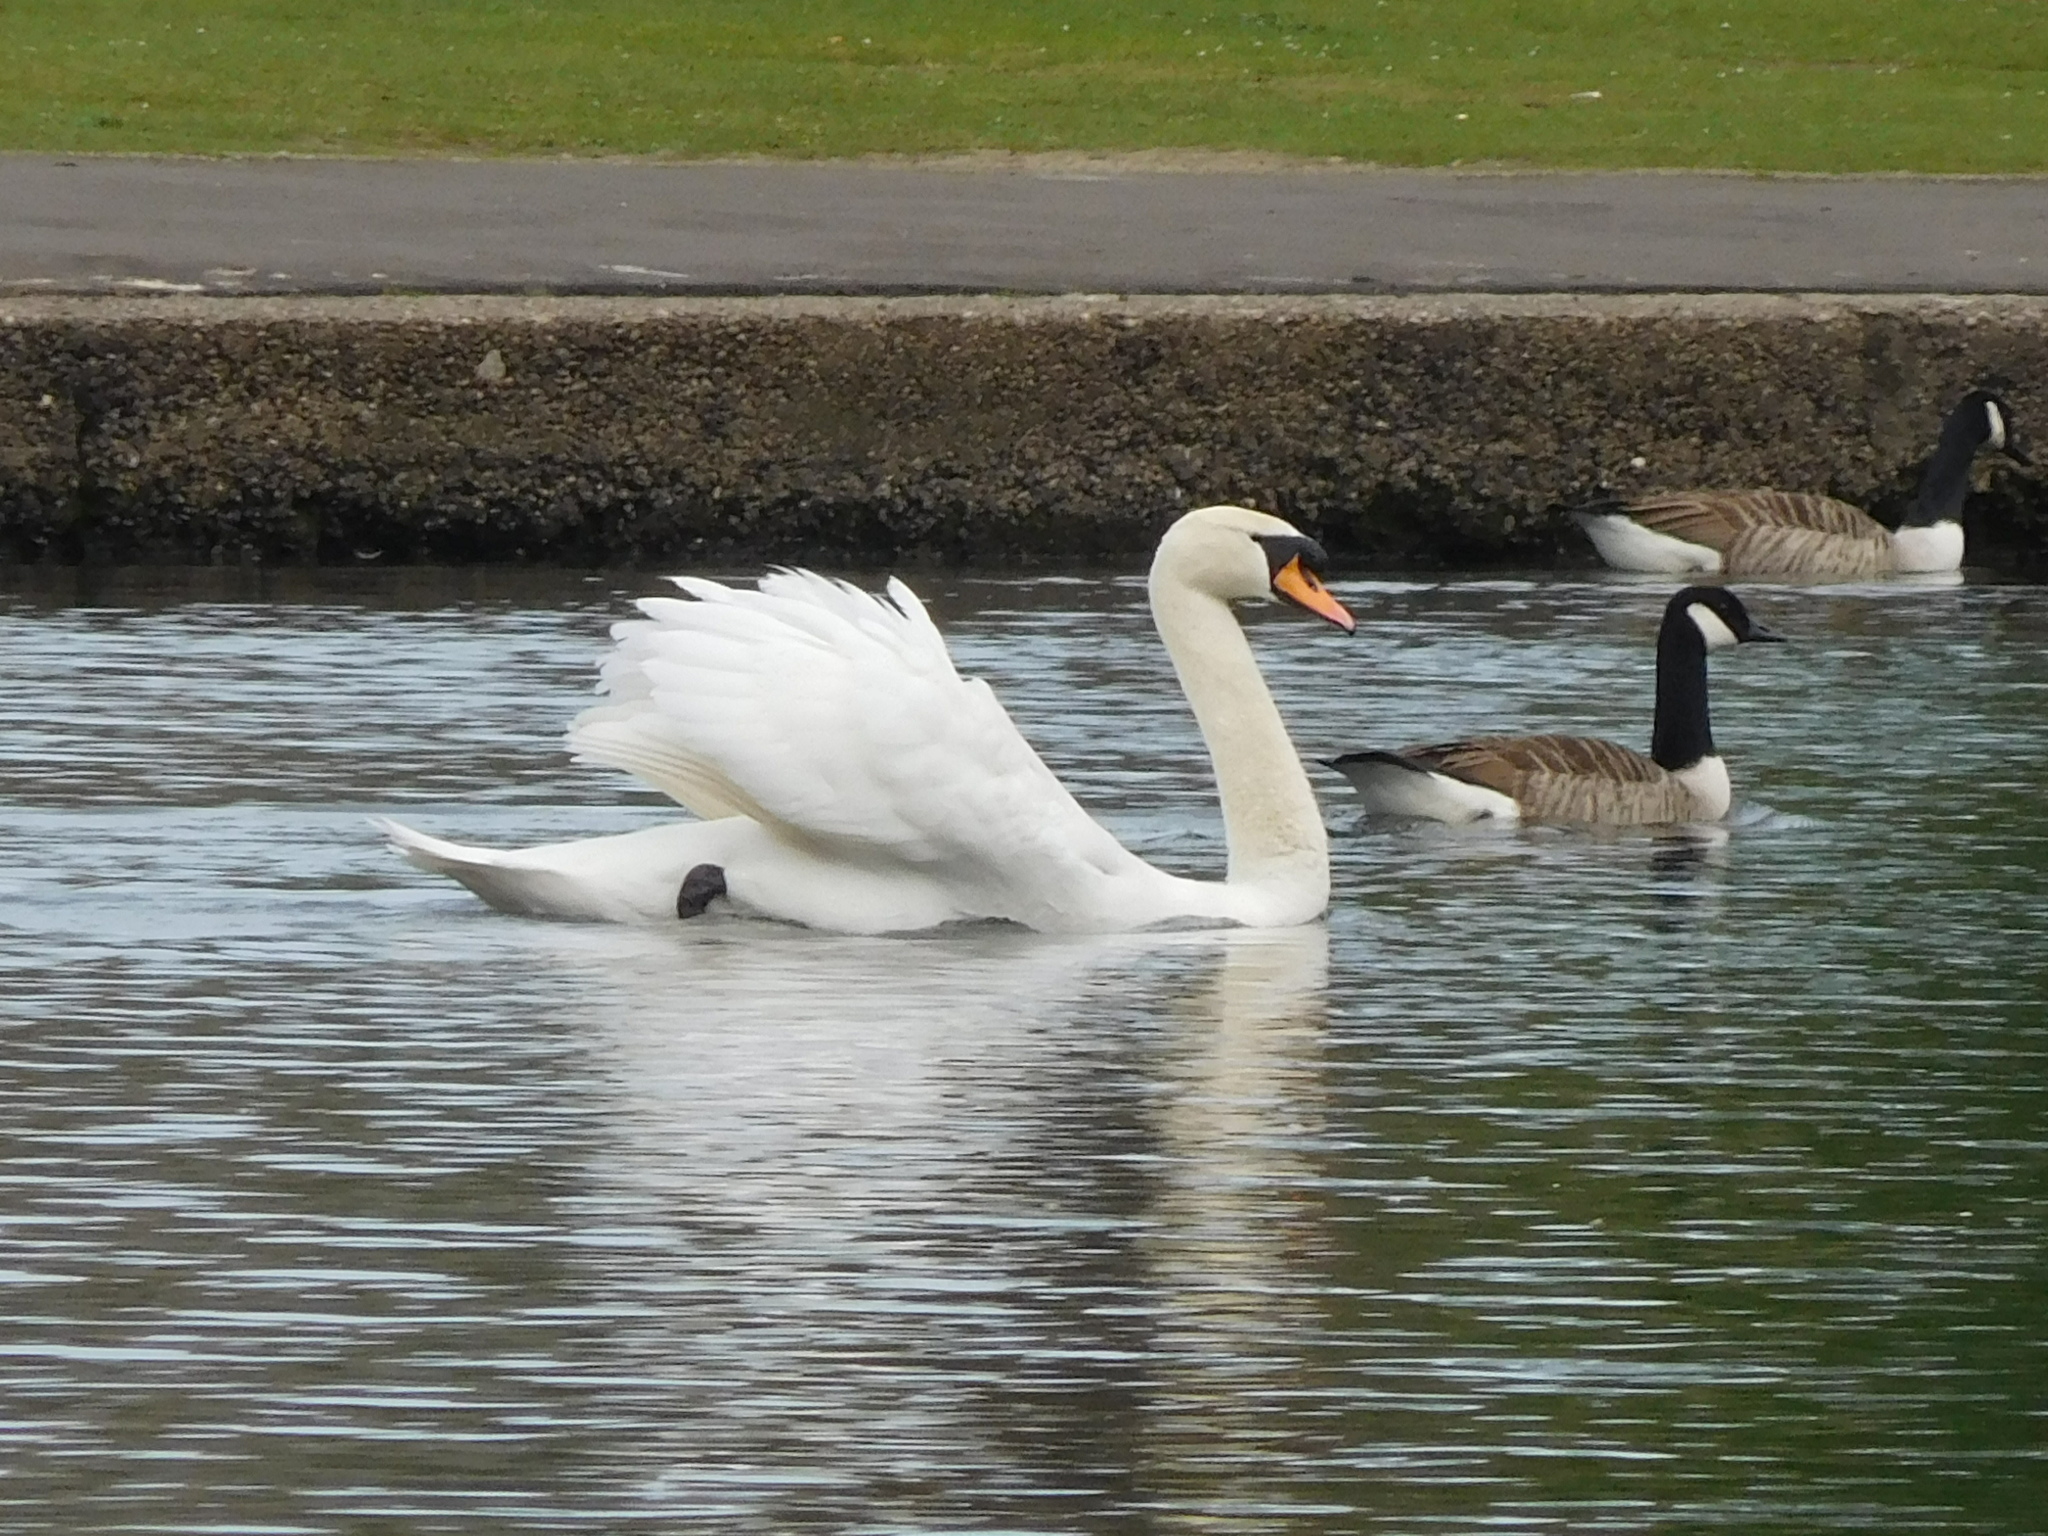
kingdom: Animalia
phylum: Chordata
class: Aves
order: Anseriformes
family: Anatidae
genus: Cygnus
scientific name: Cygnus olor
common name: Mute swan
